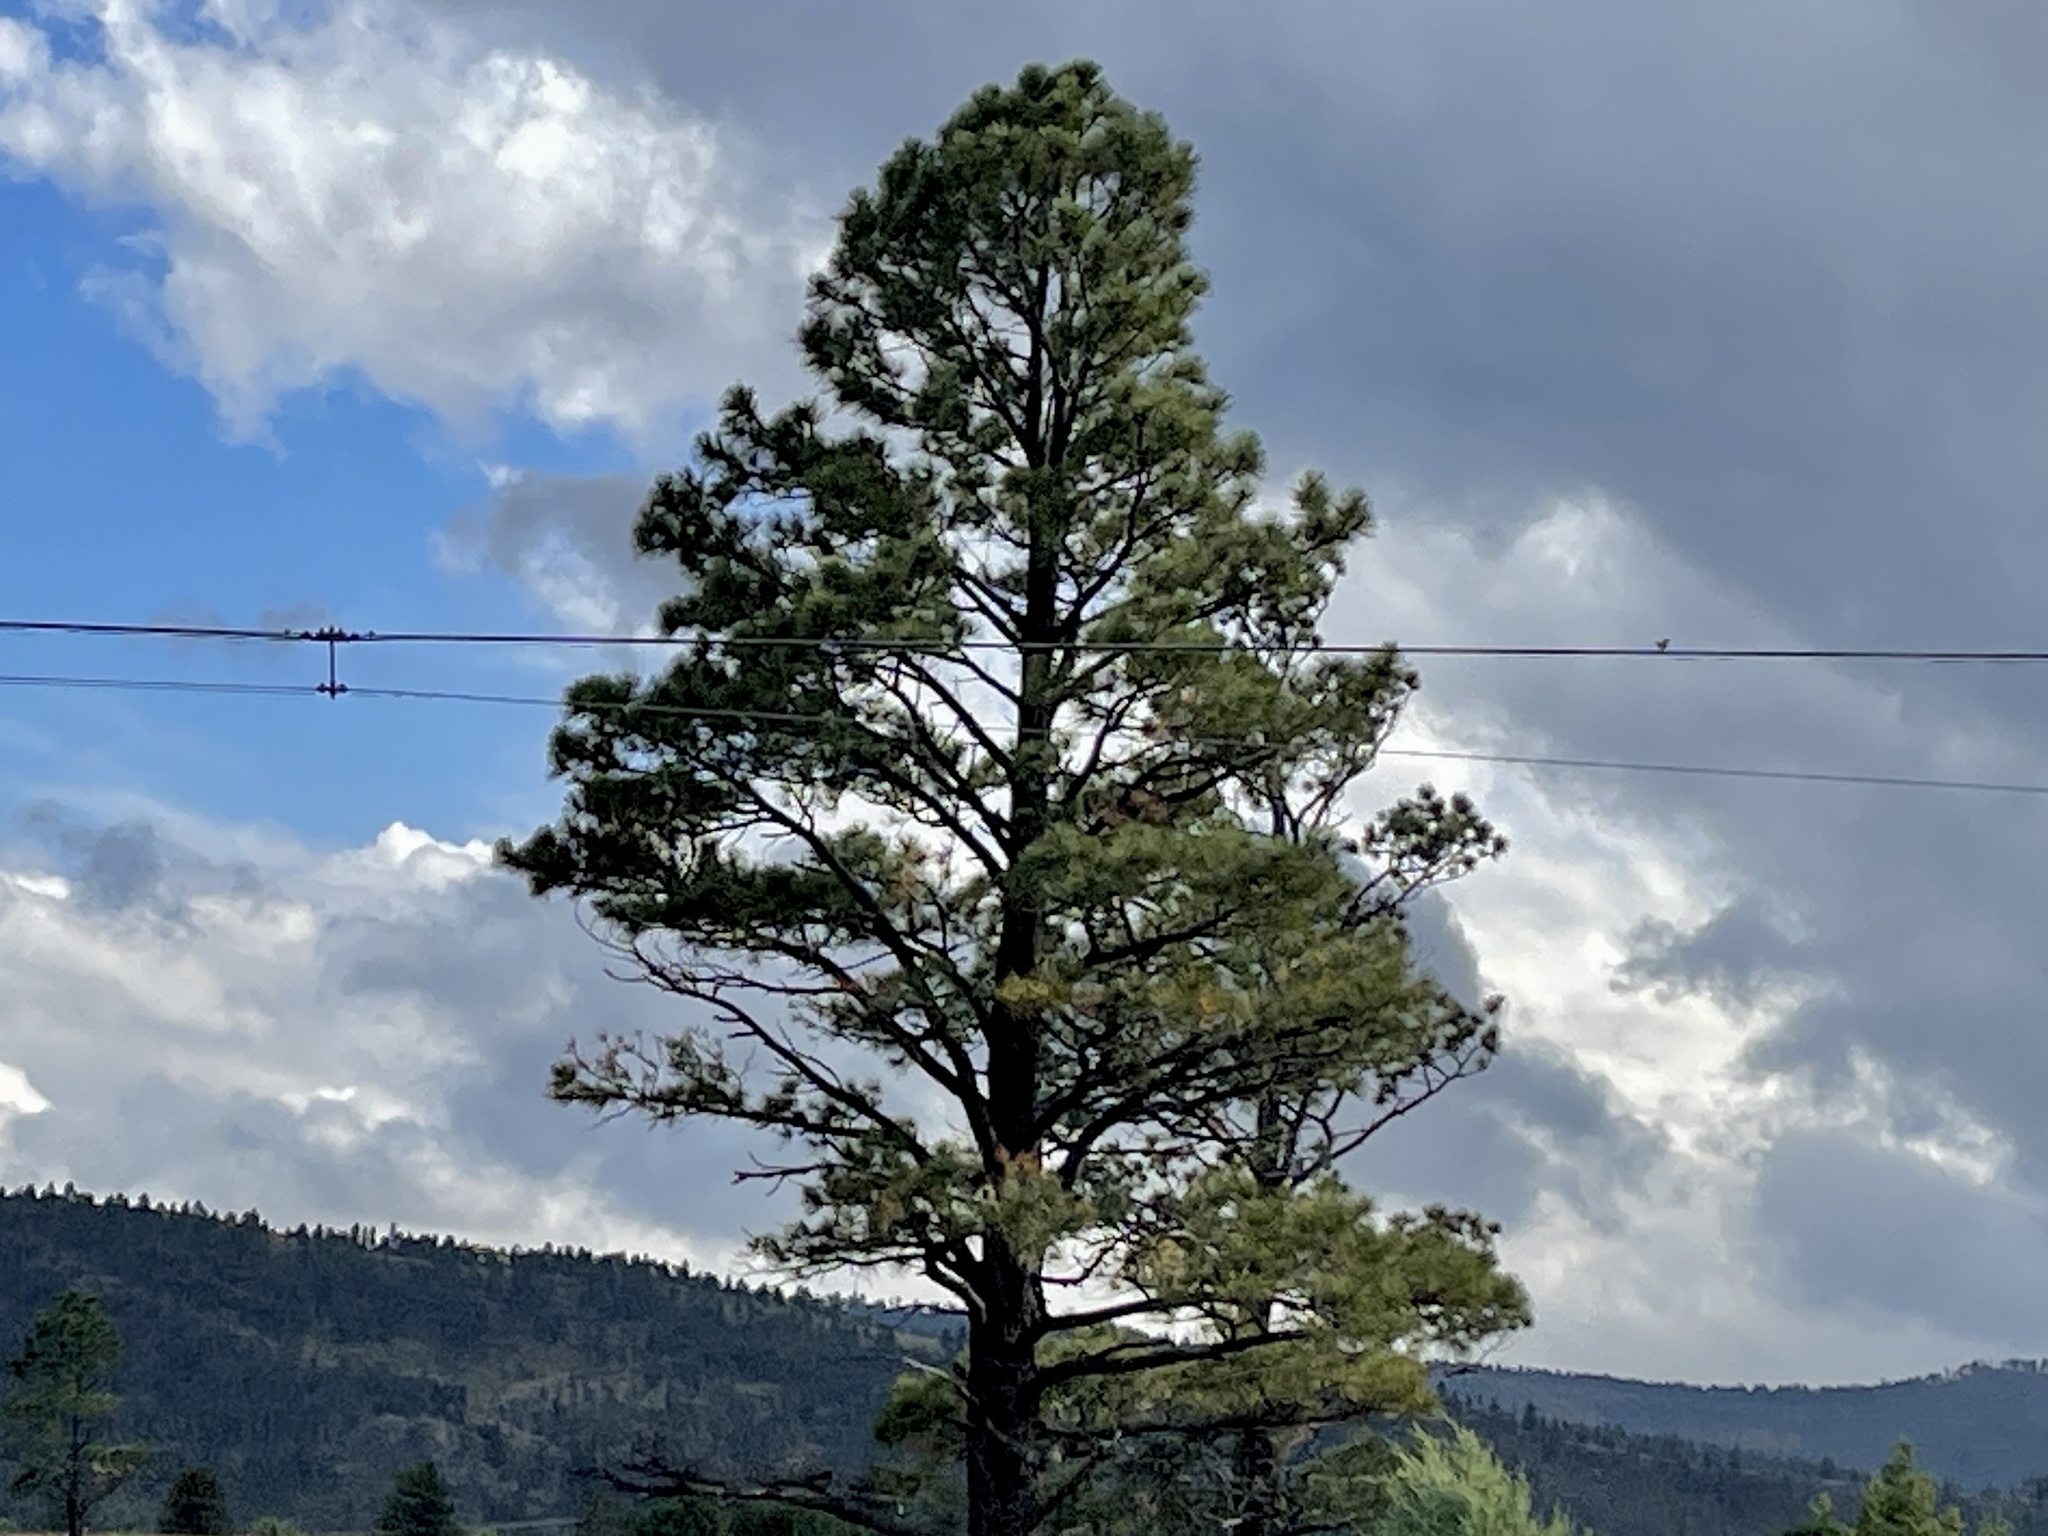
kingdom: Plantae
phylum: Tracheophyta
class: Pinopsida
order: Pinales
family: Pinaceae
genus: Pinus
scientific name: Pinus ponderosa
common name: Western yellow-pine
